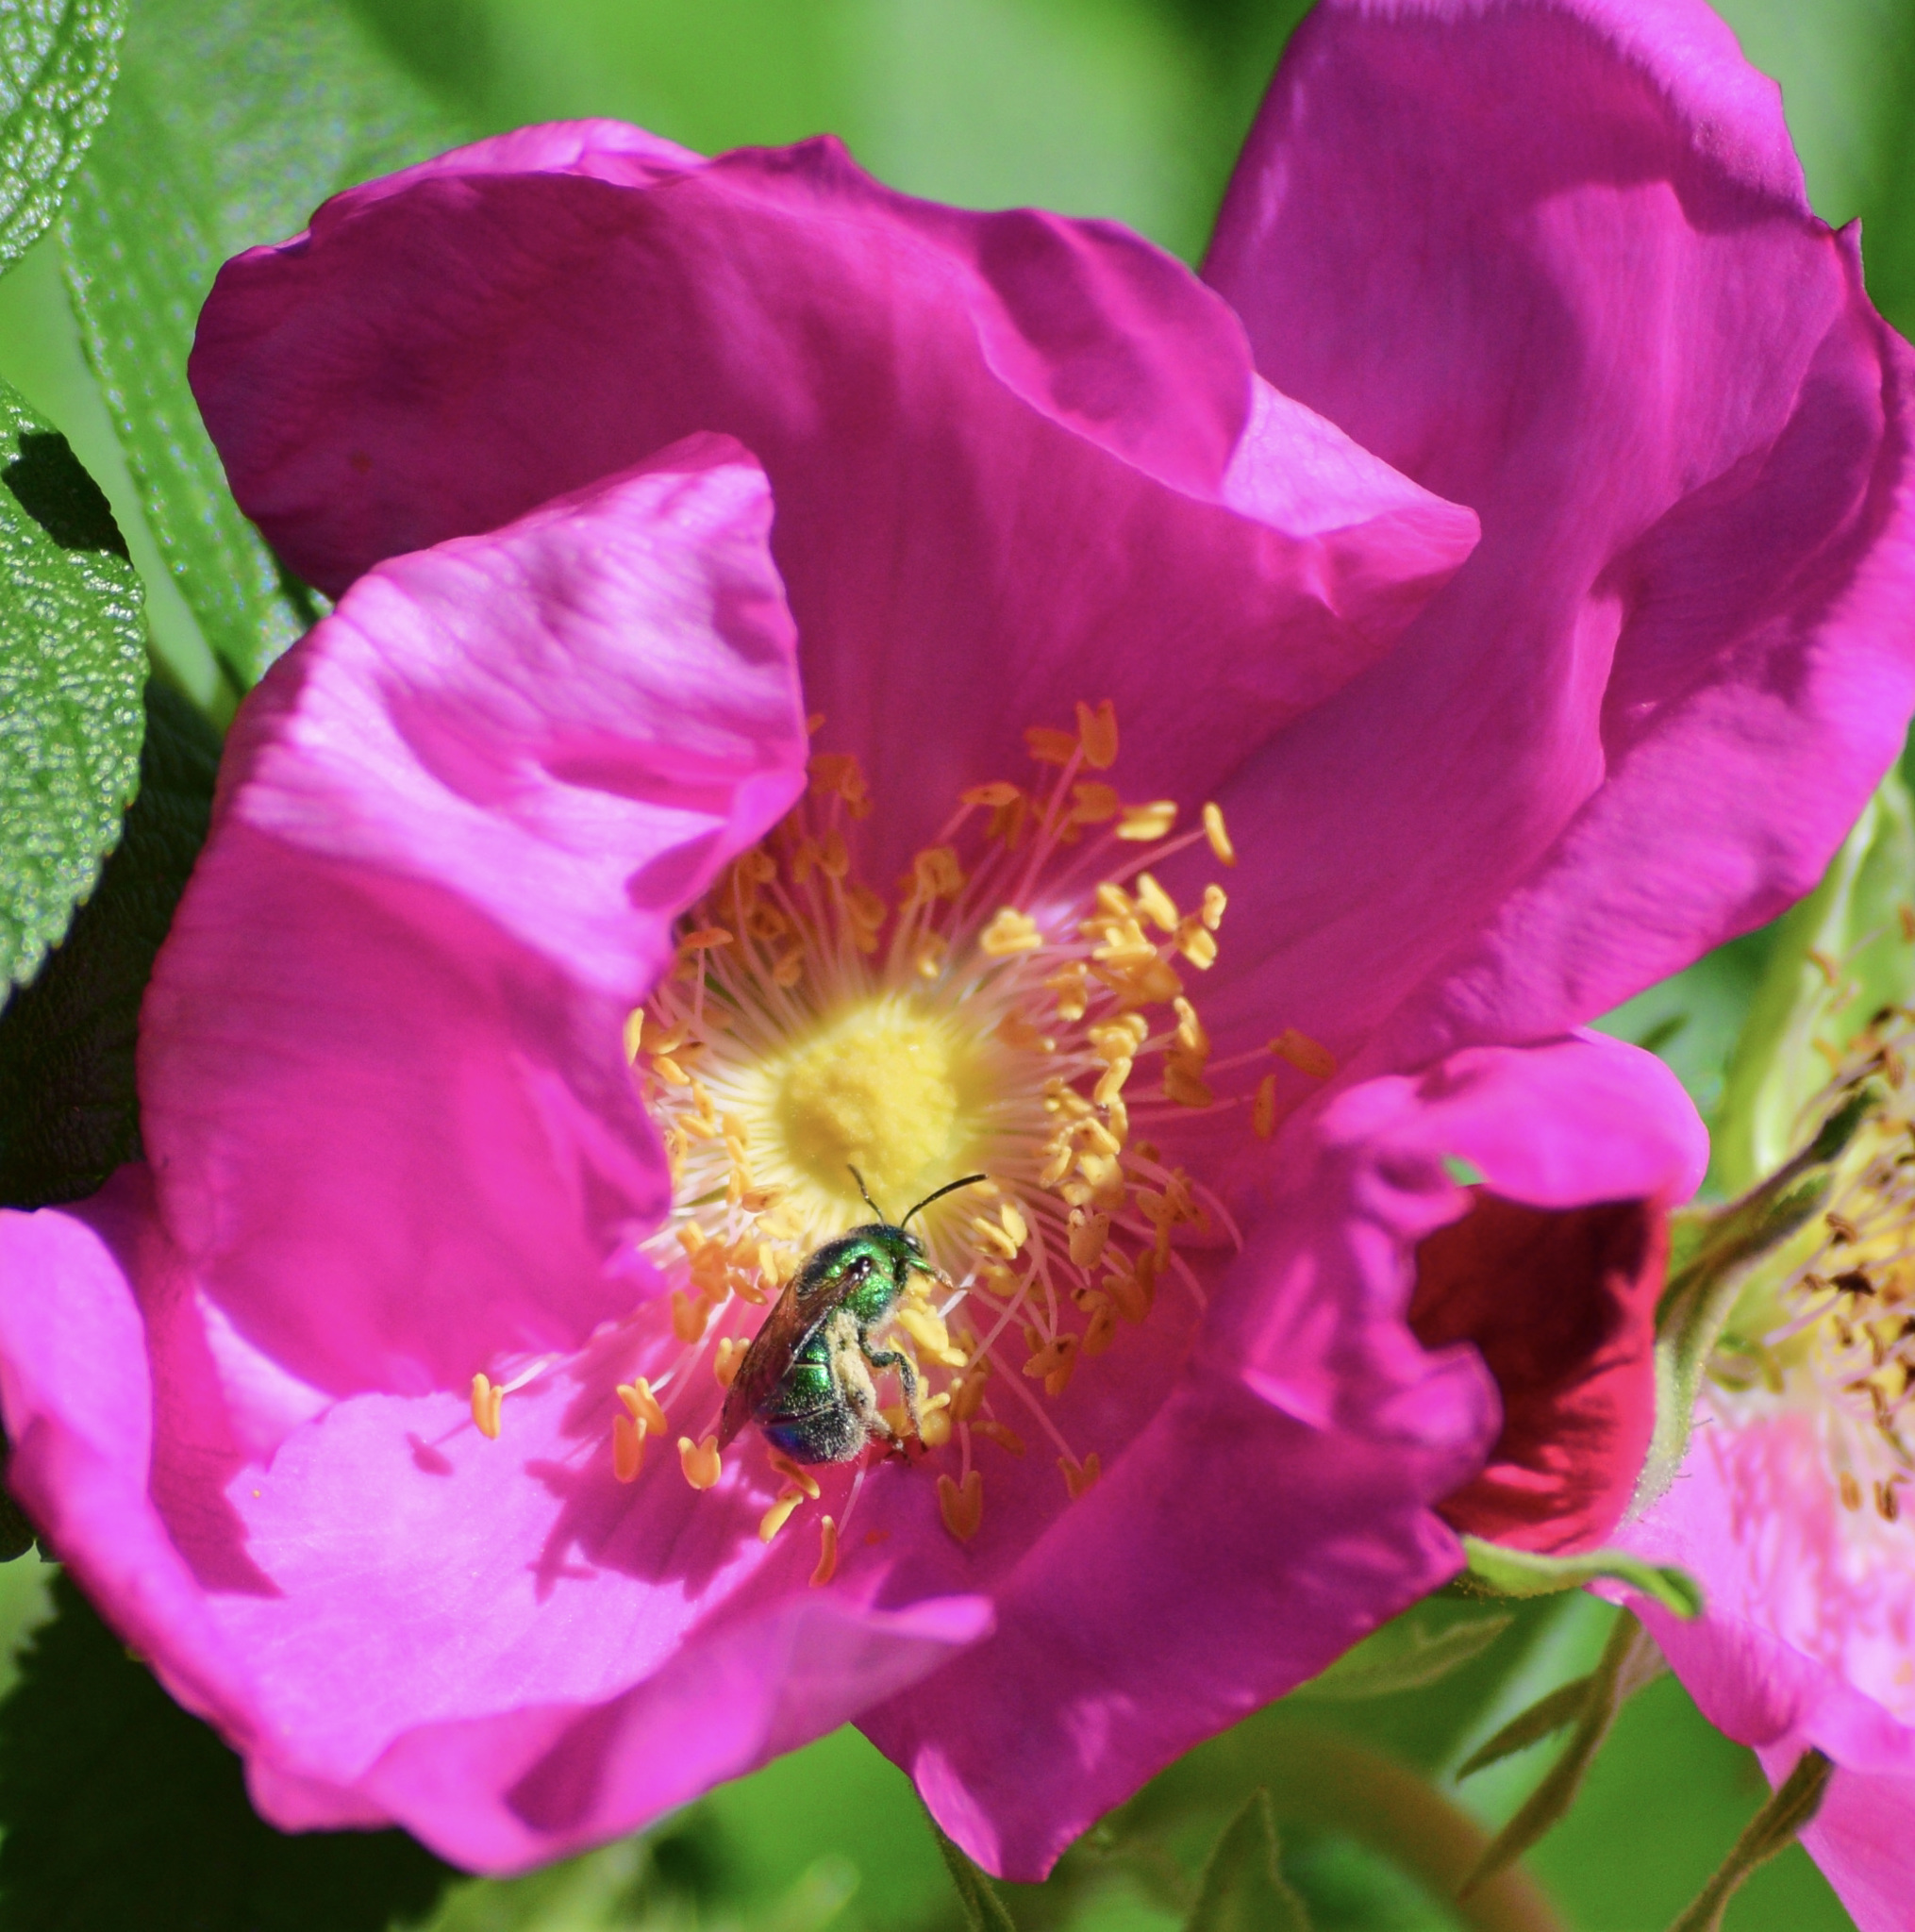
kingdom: Animalia
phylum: Arthropoda
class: Insecta
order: Hymenoptera
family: Halictidae
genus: Augochloropsis
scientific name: Augochloropsis viridula
